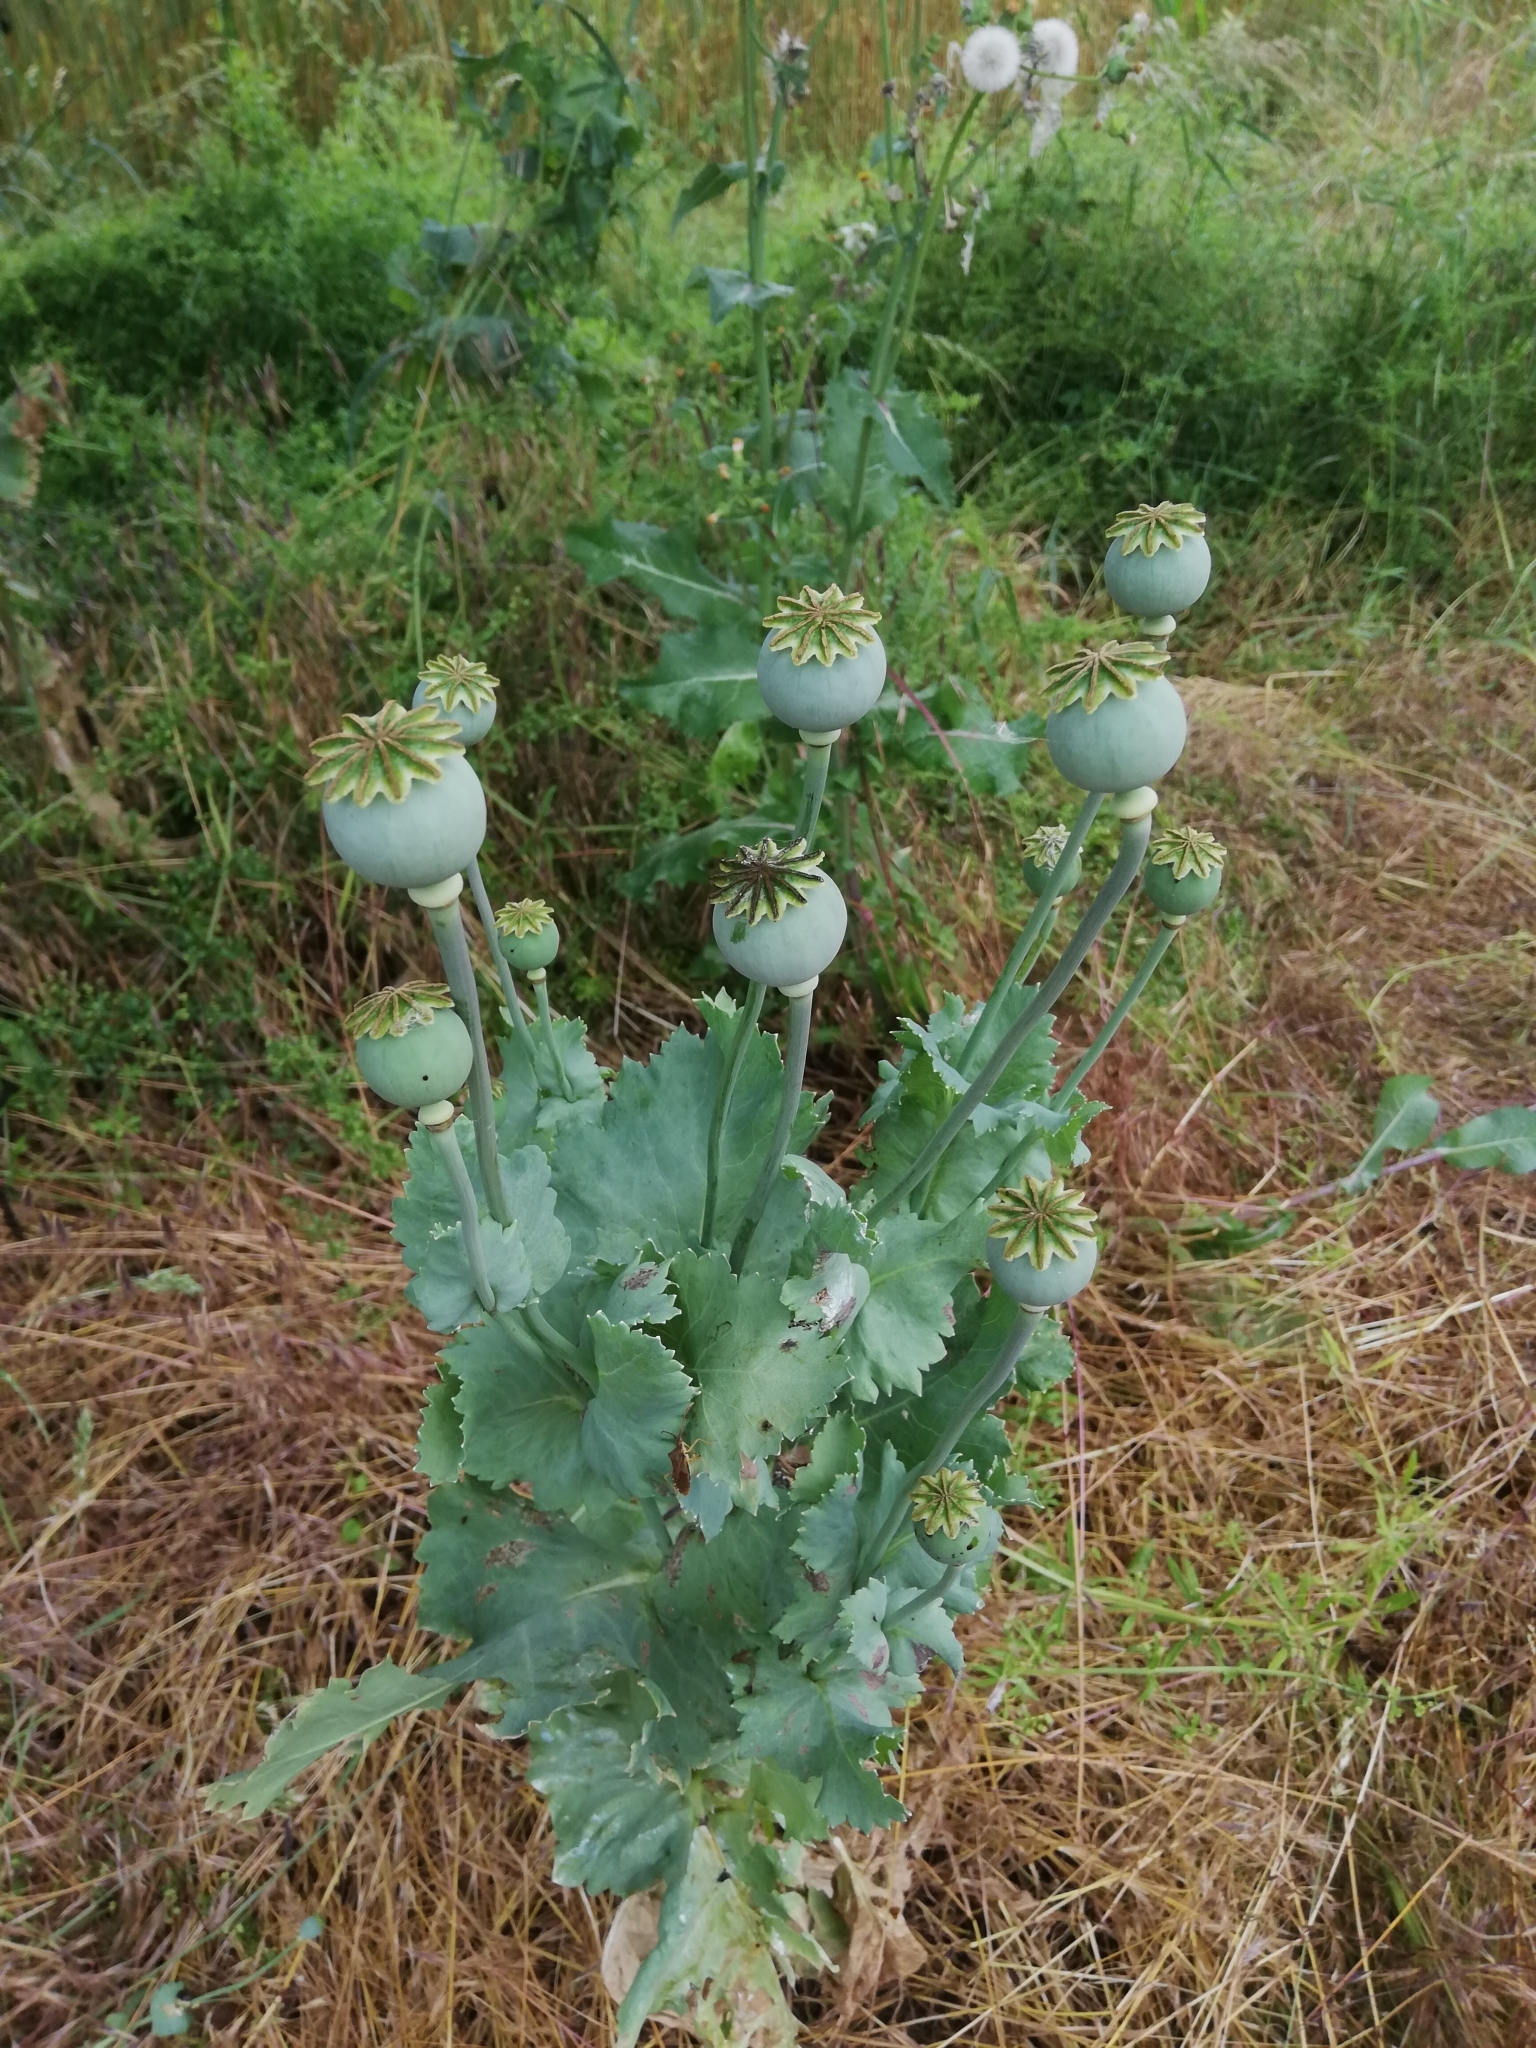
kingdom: Plantae
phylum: Tracheophyta
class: Magnoliopsida
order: Ranunculales
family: Papaveraceae
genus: Papaver
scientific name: Papaver somniferum
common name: Opium poppy
